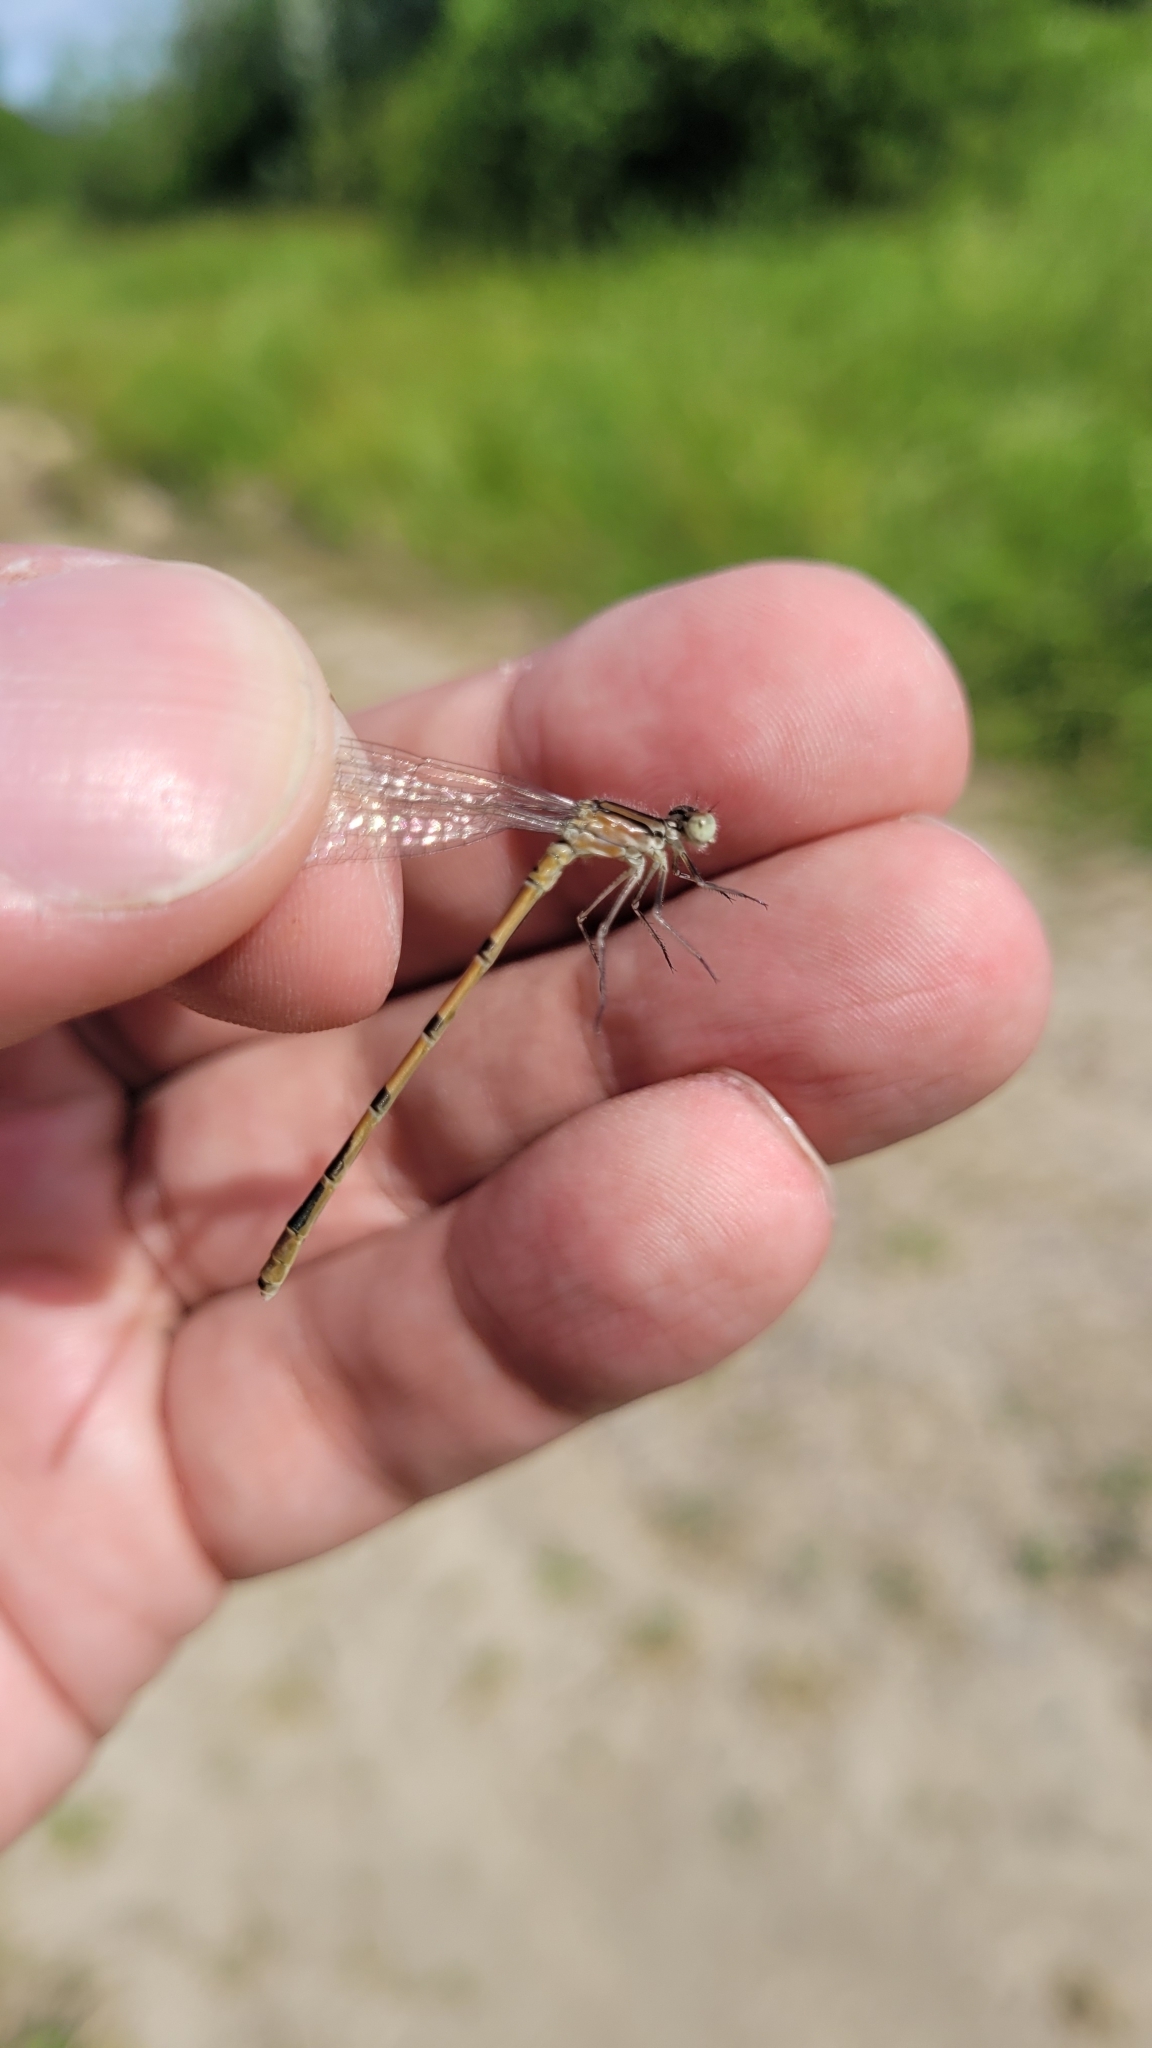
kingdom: Animalia
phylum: Arthropoda
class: Insecta
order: Odonata
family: Coenagrionidae
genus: Enallagma
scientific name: Enallagma cyathigerum
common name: Common blue damselfly
